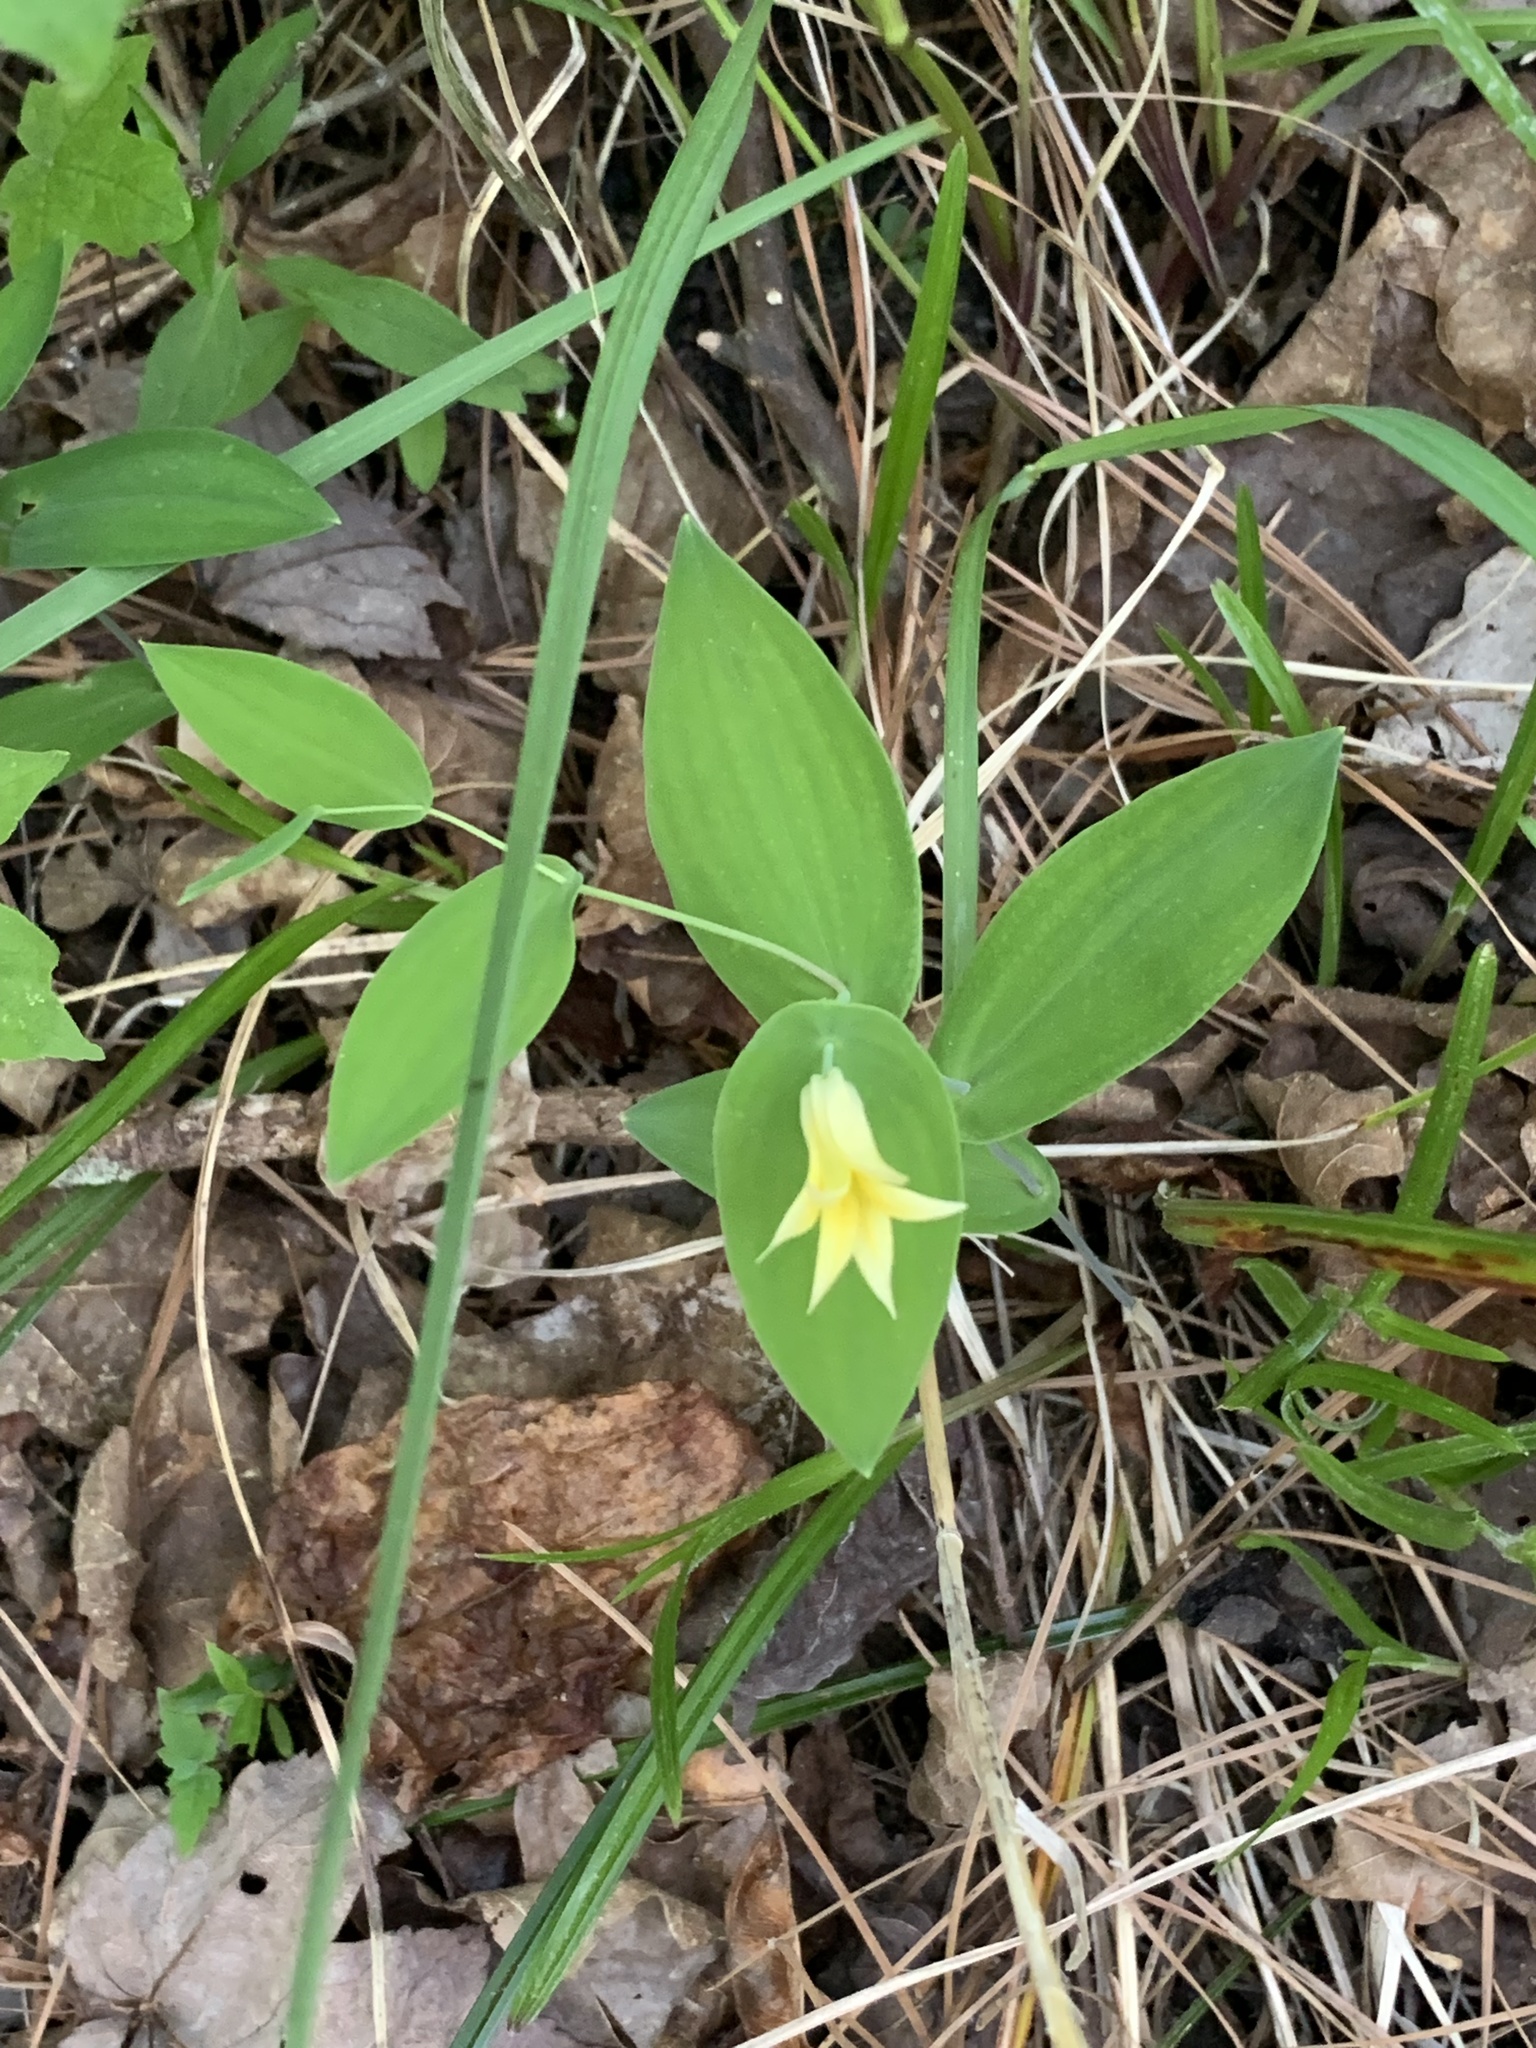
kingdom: Plantae
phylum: Tracheophyta
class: Liliopsida
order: Liliales
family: Colchicaceae
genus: Uvularia
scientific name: Uvularia perfoliata
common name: Perfoliate bellwort
